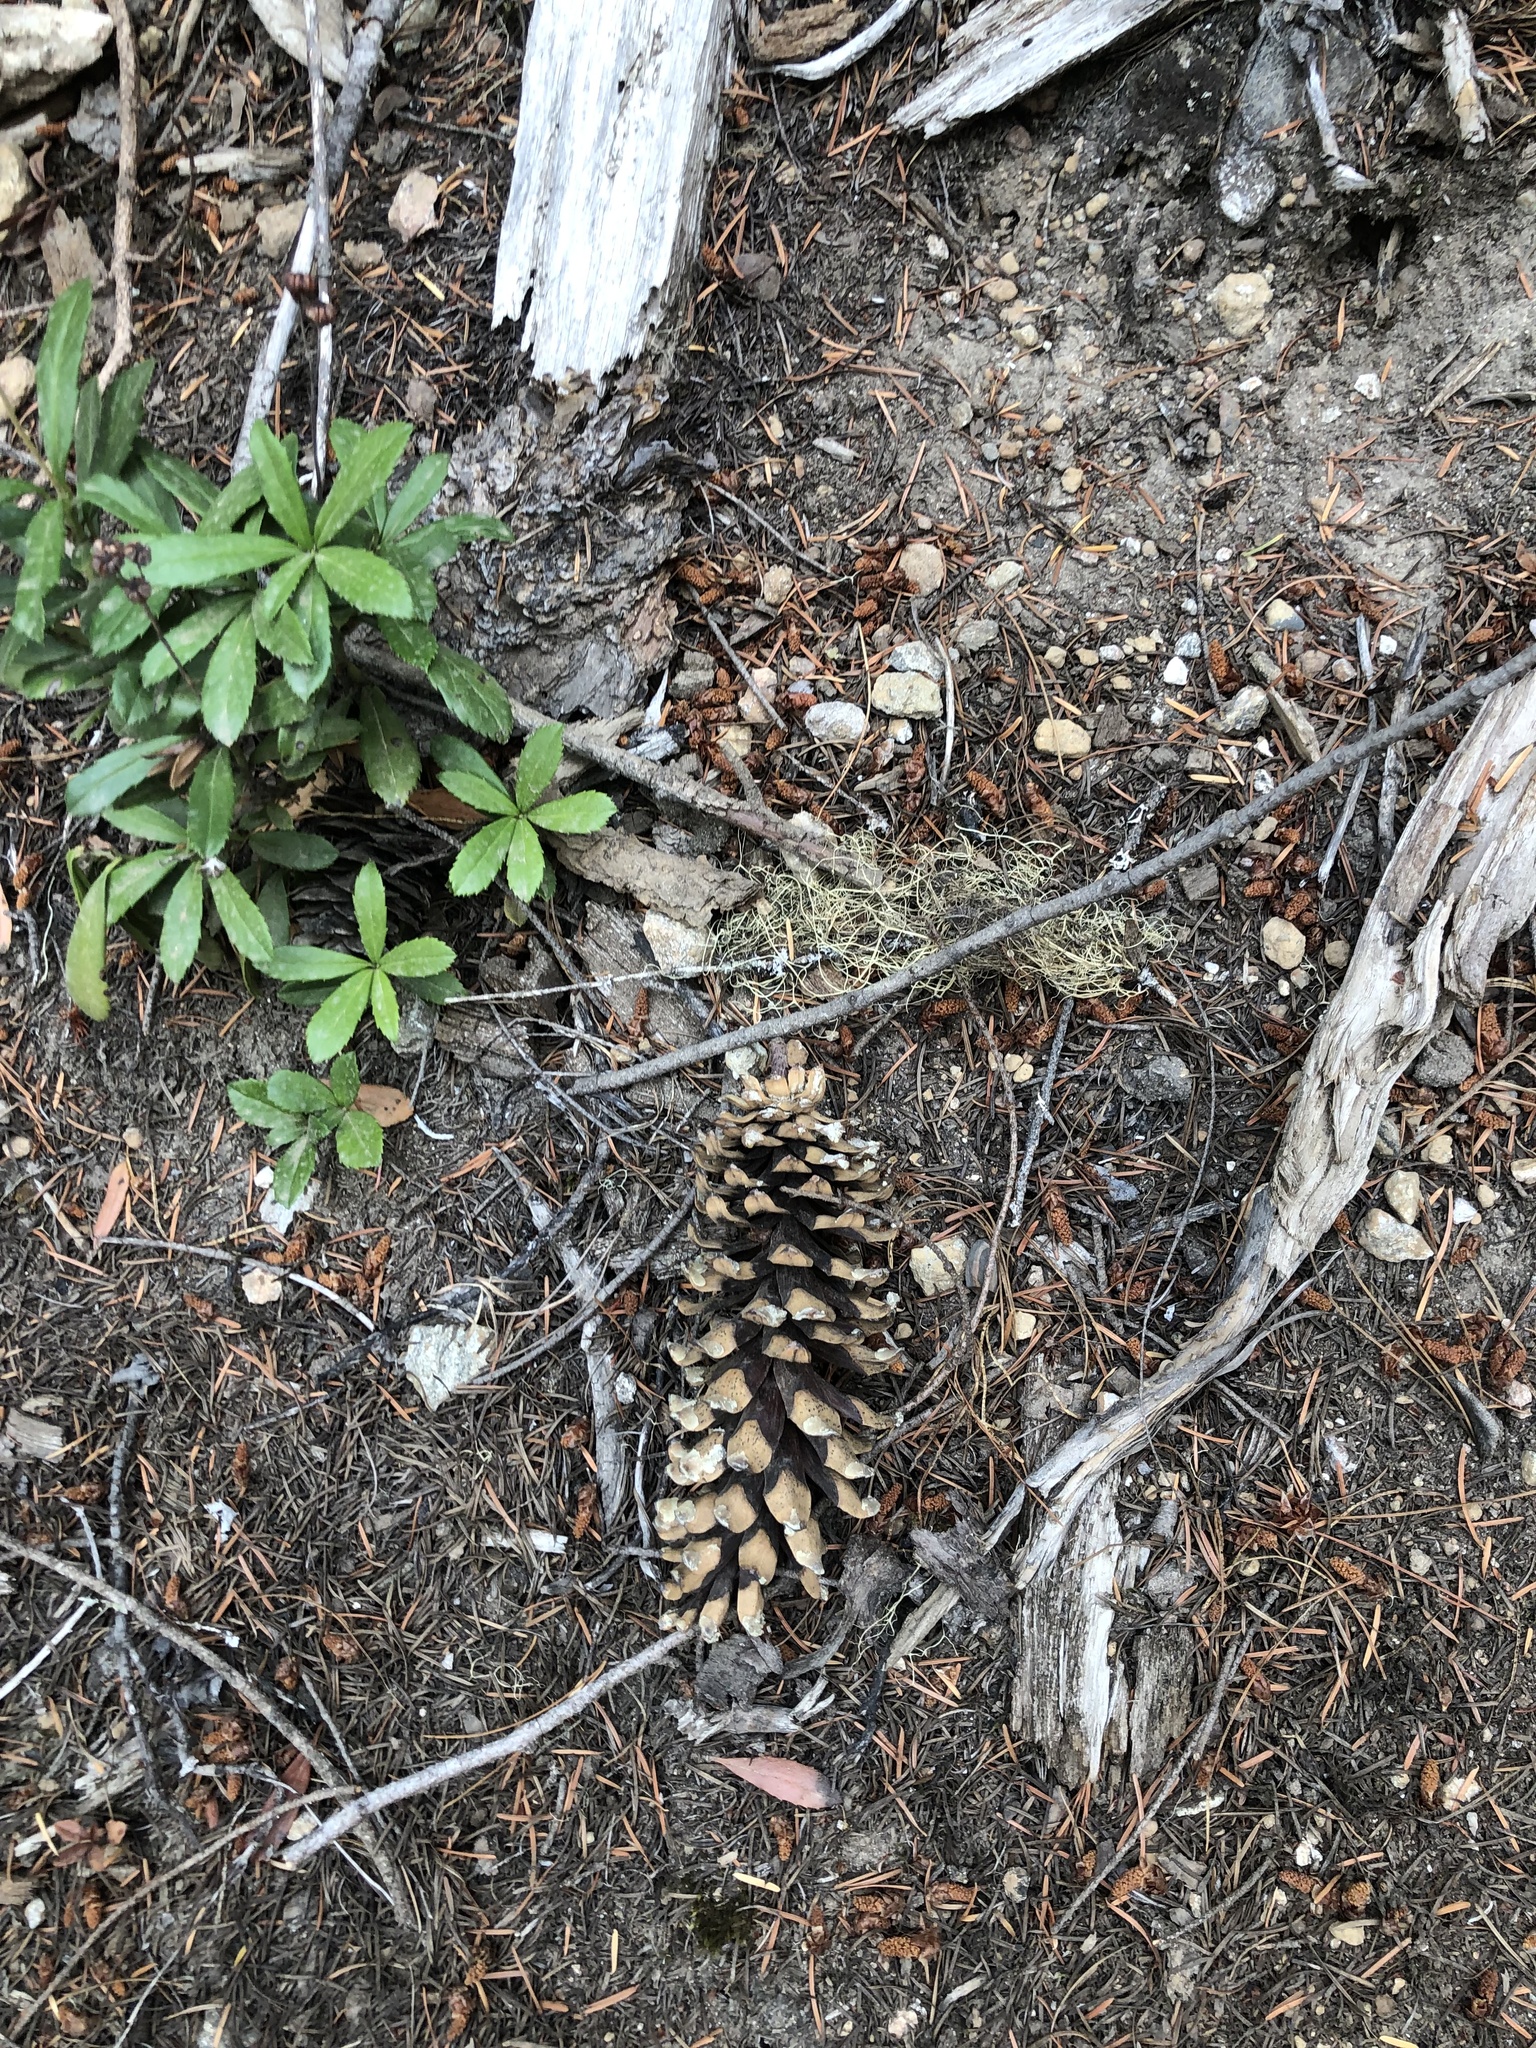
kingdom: Plantae
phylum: Tracheophyta
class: Pinopsida
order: Pinales
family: Pinaceae
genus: Pinus
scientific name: Pinus monticola
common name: Western white pine
